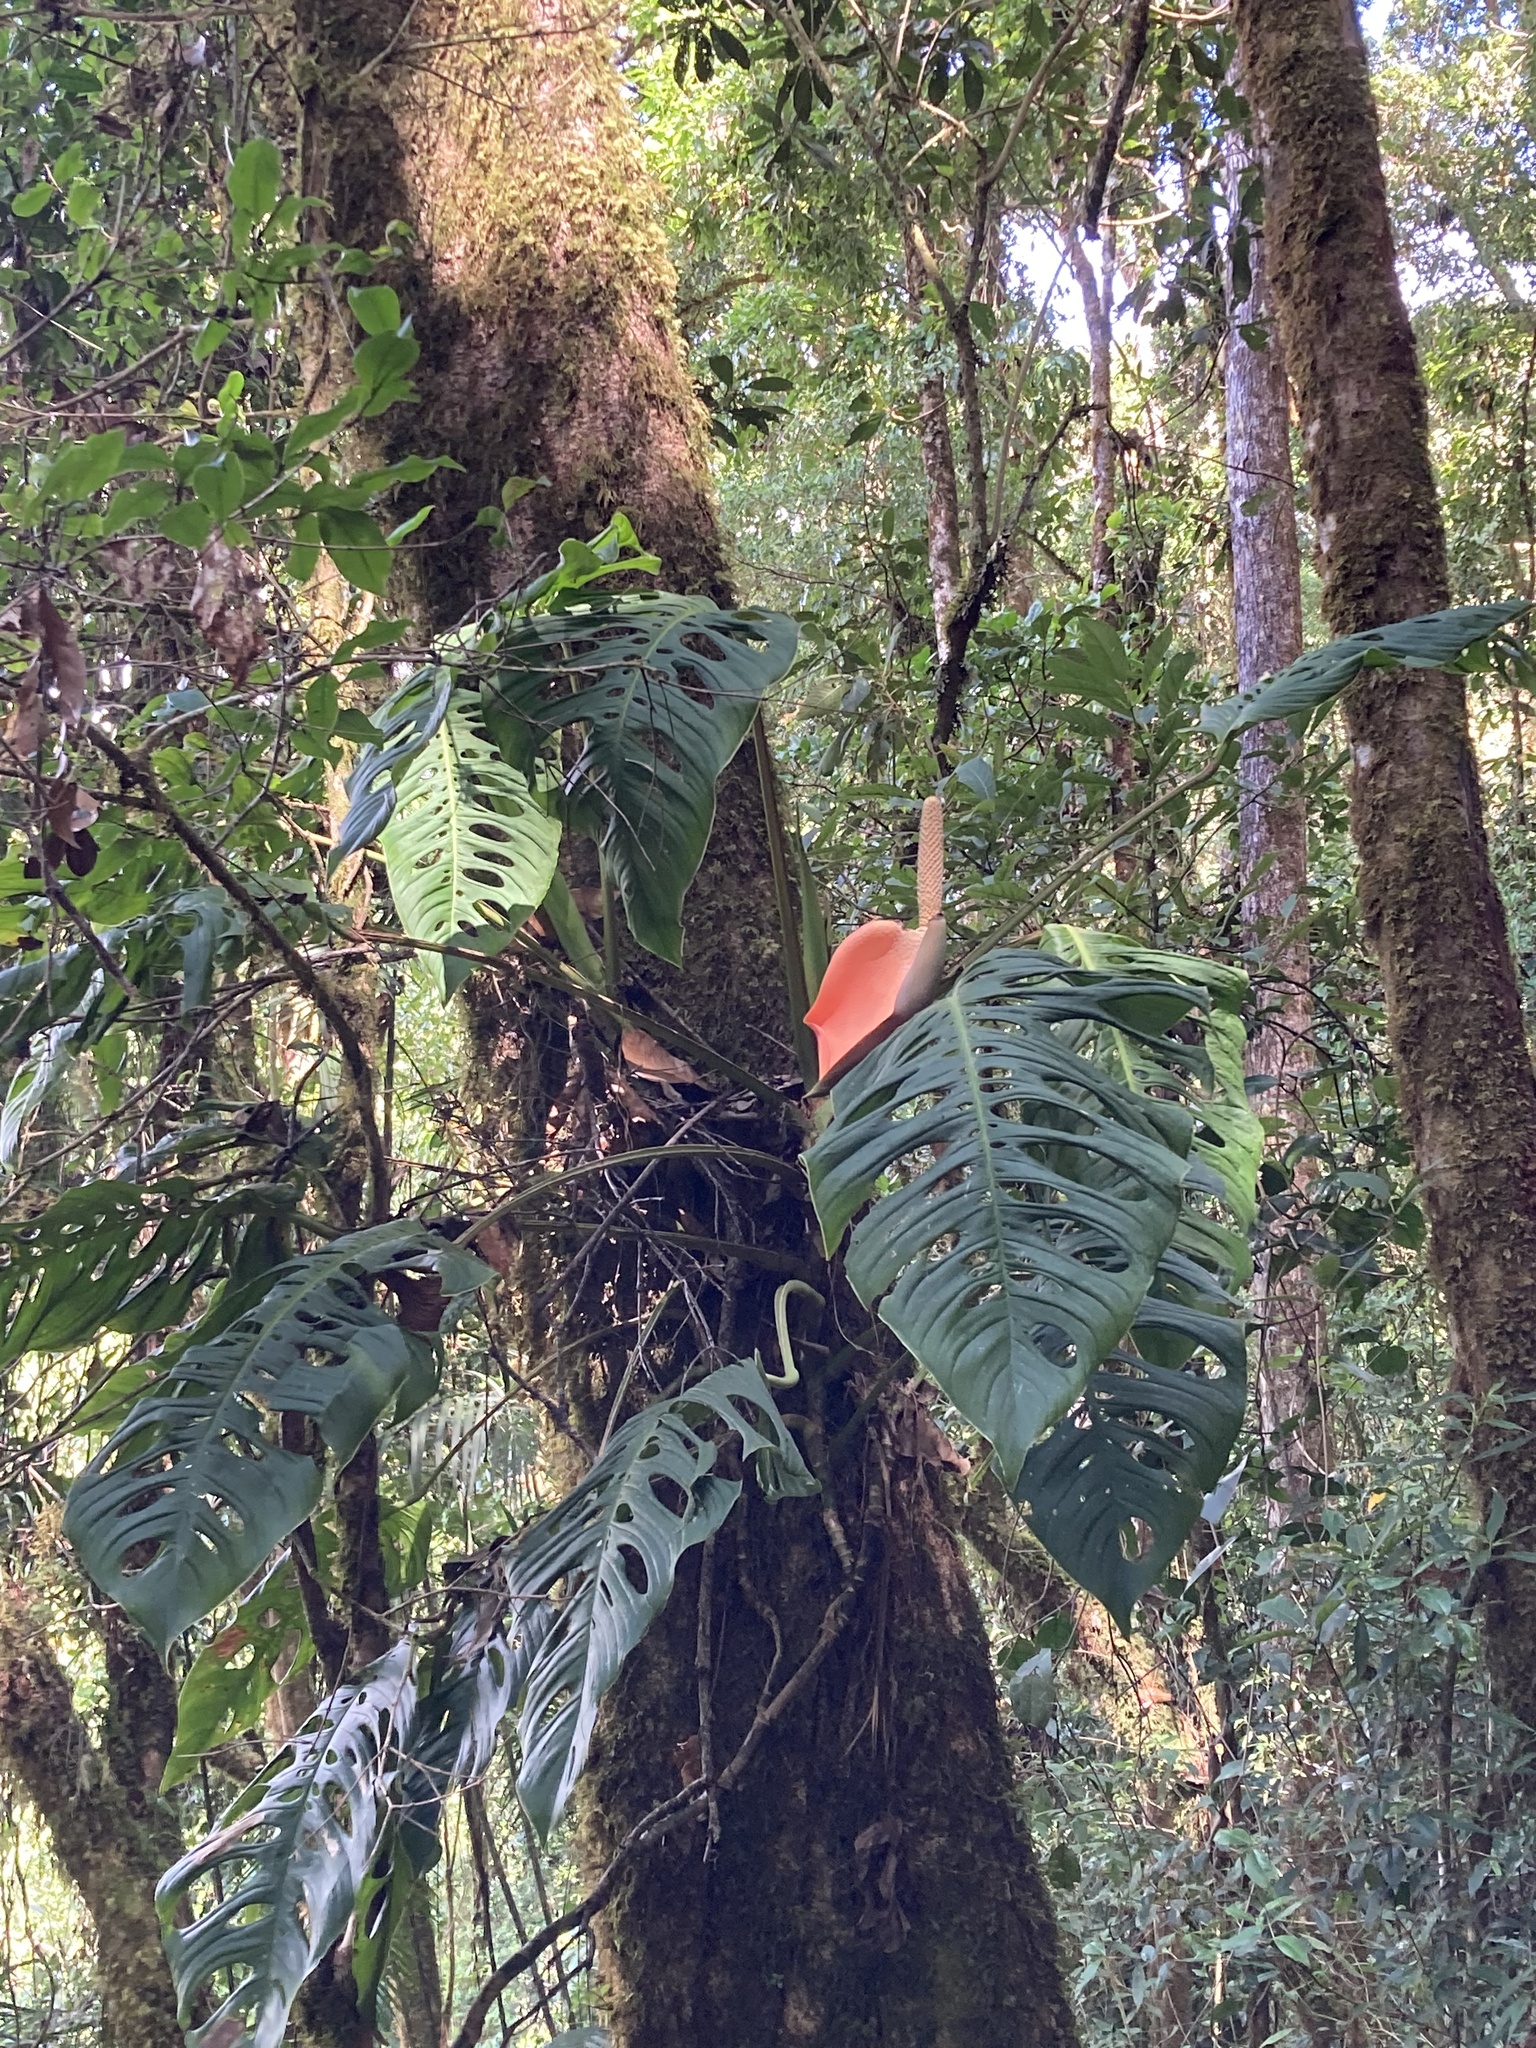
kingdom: Plantae
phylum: Tracheophyta
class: Liliopsida
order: Alismatales
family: Araceae
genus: Monstera
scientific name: Monstera oreophila
